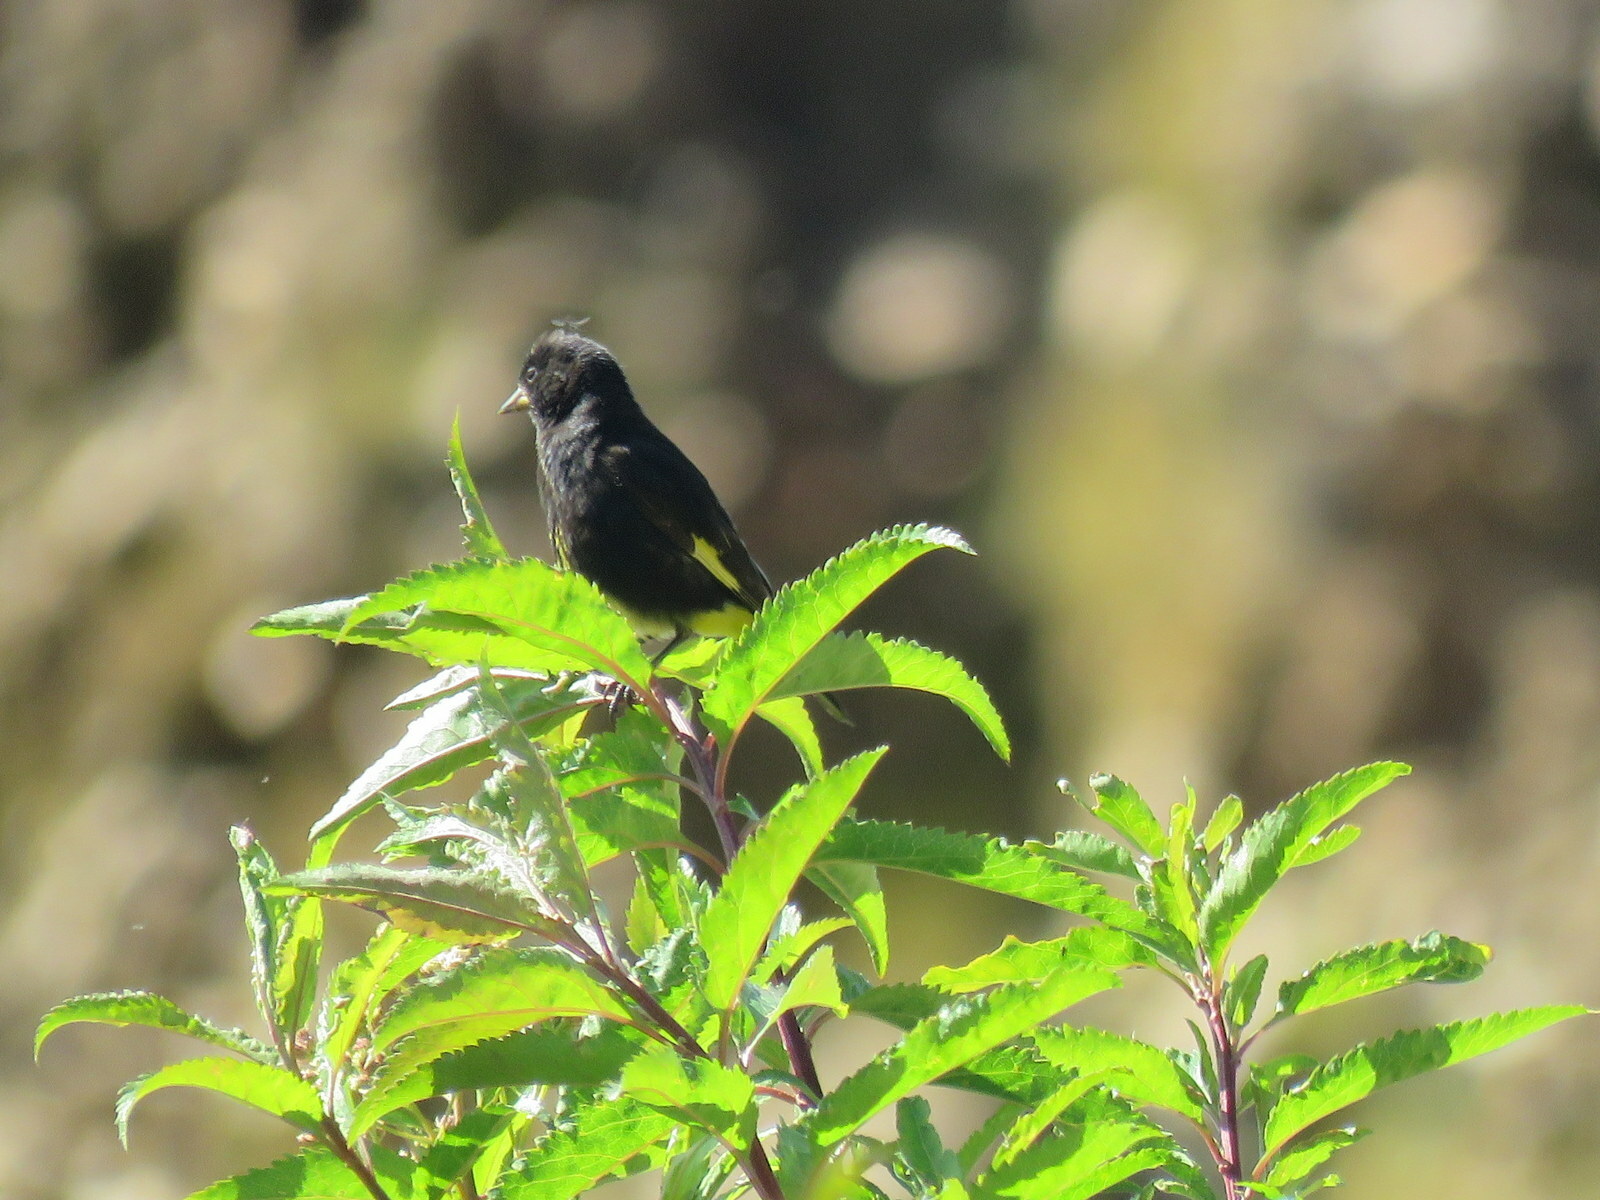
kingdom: Animalia
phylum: Chordata
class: Aves
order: Passeriformes
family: Fringillidae
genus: Spinus
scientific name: Spinus atratus
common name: Black siskin
